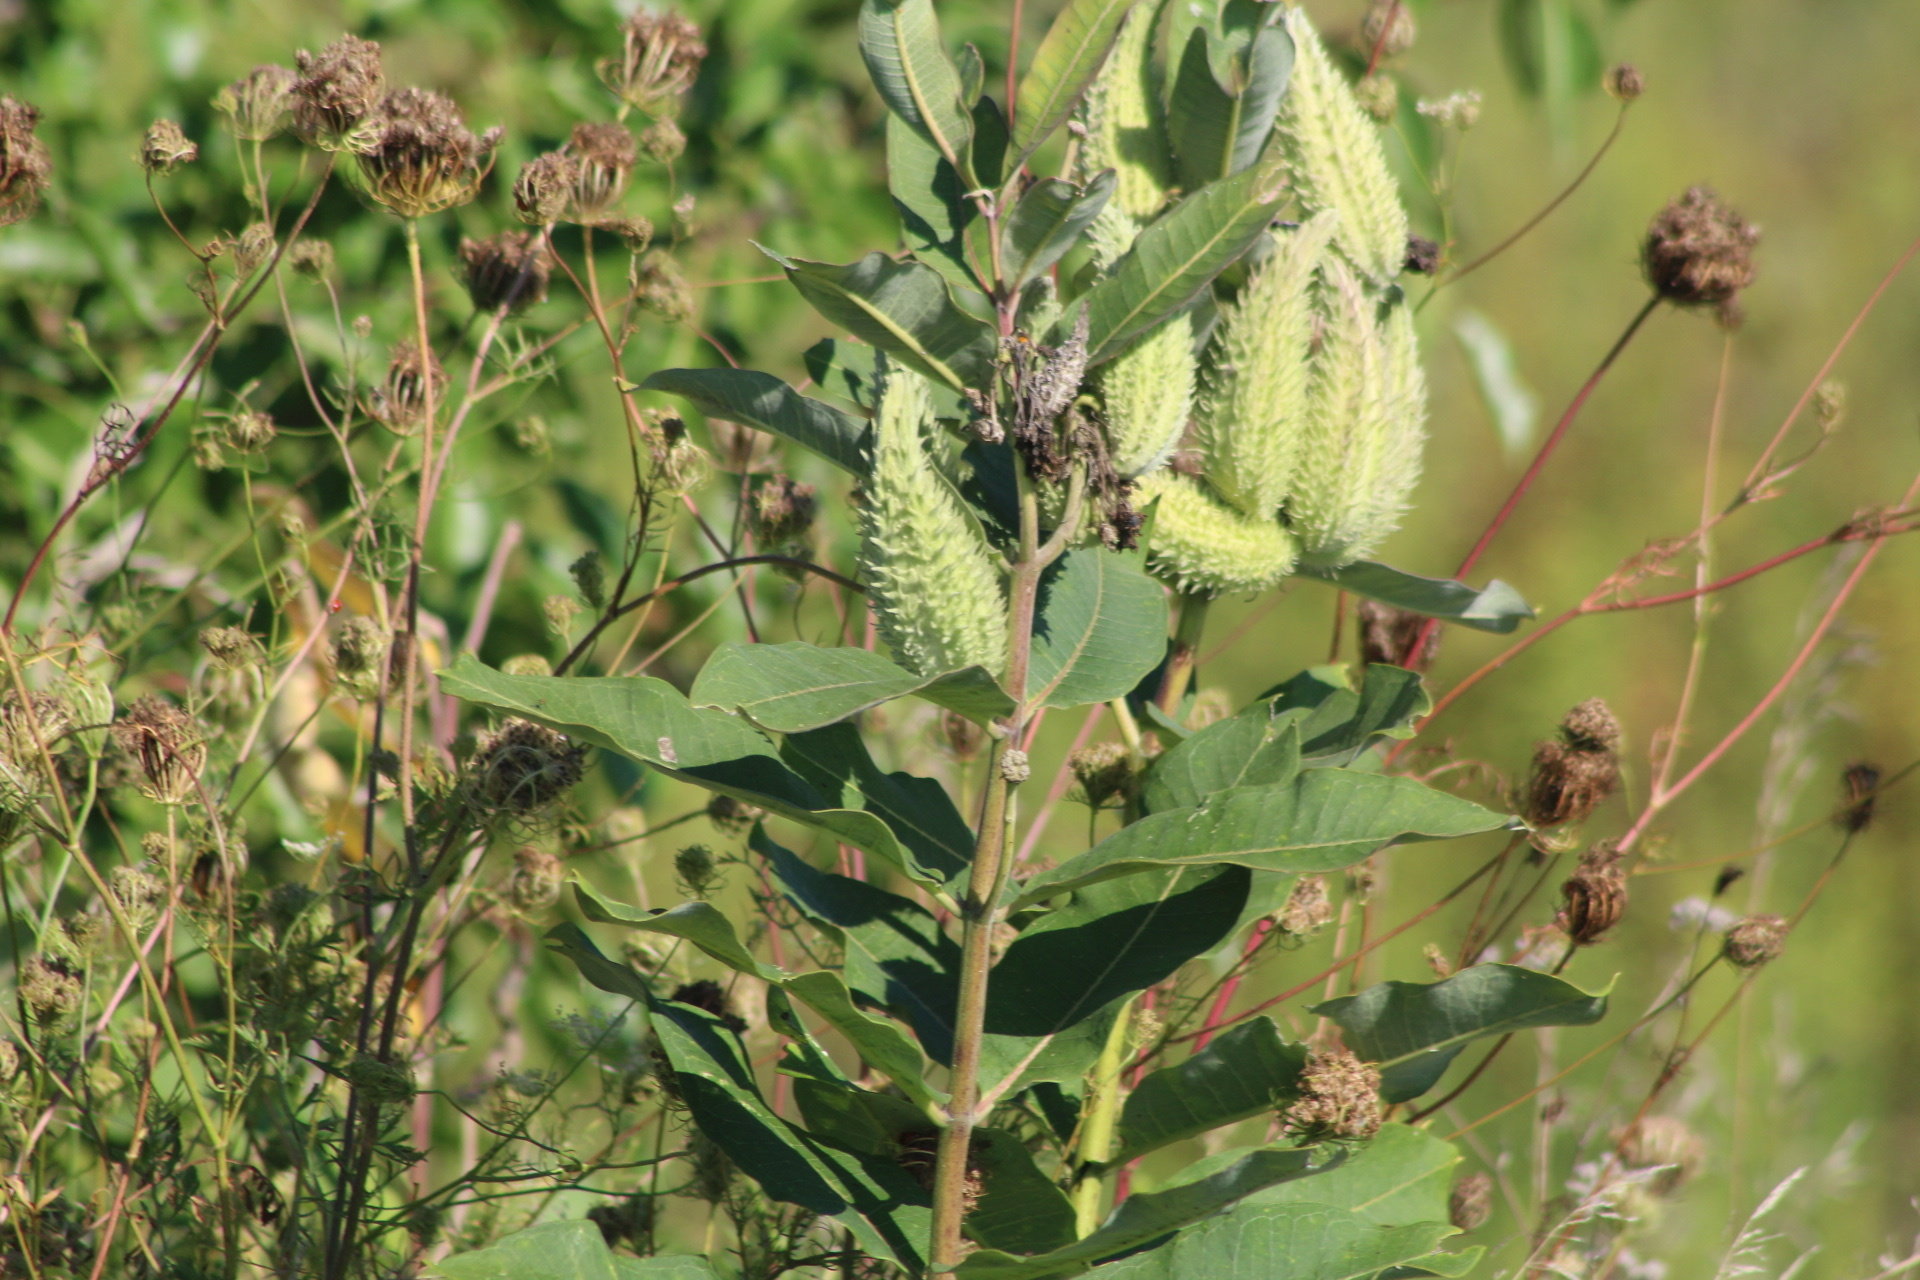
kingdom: Plantae
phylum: Tracheophyta
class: Magnoliopsida
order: Gentianales
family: Apocynaceae
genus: Asclepias
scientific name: Asclepias syriaca
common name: Common milkweed
